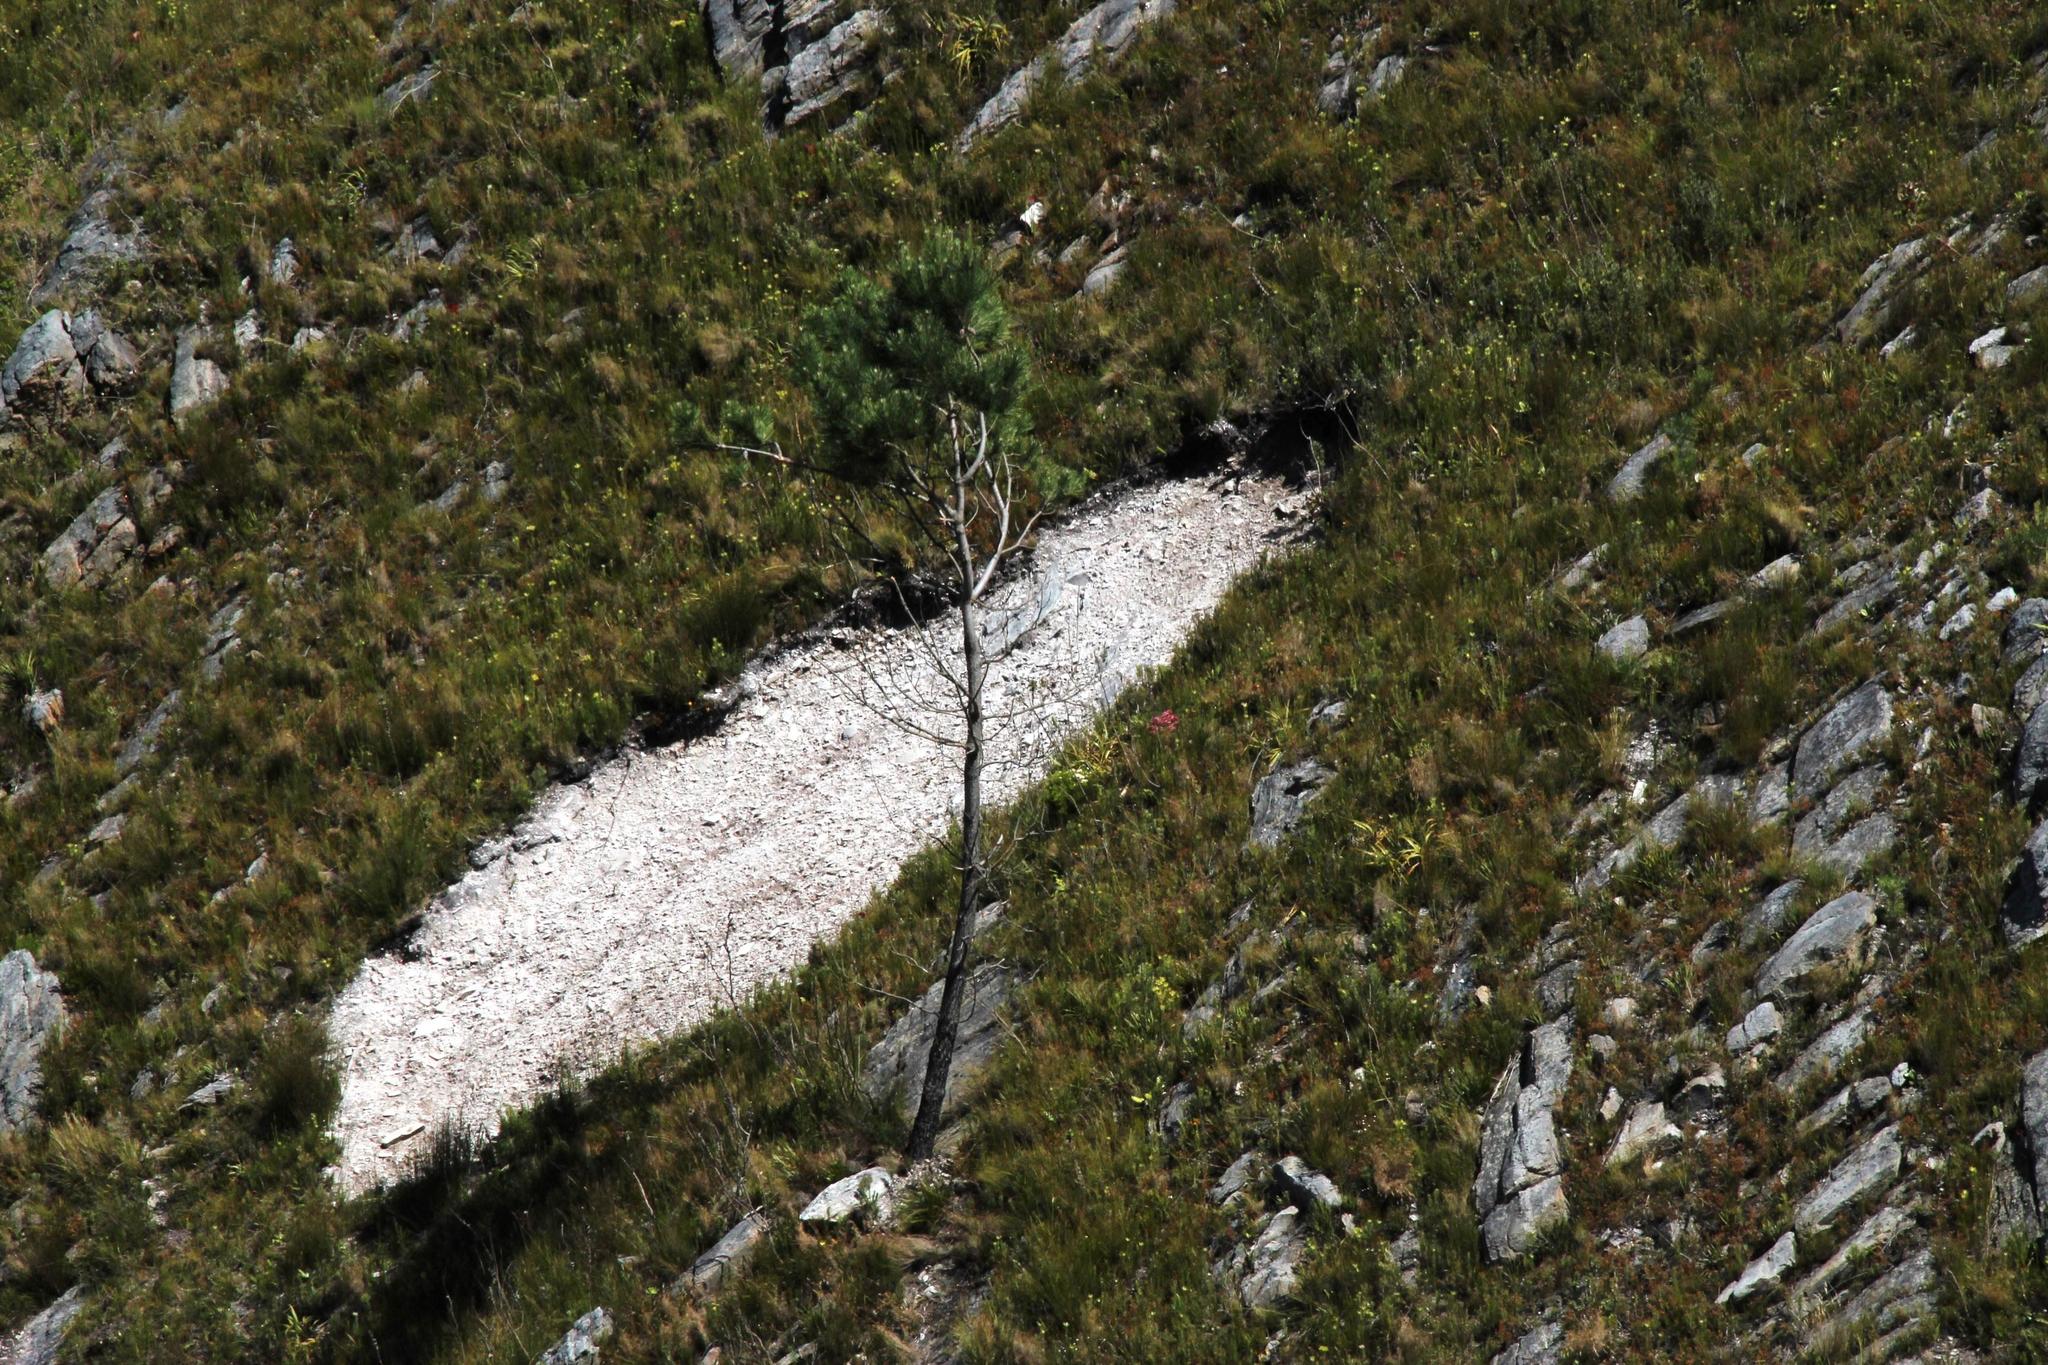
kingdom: Plantae
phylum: Tracheophyta
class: Pinopsida
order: Pinales
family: Pinaceae
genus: Pinus
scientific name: Pinus pinaster
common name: Maritime pine
